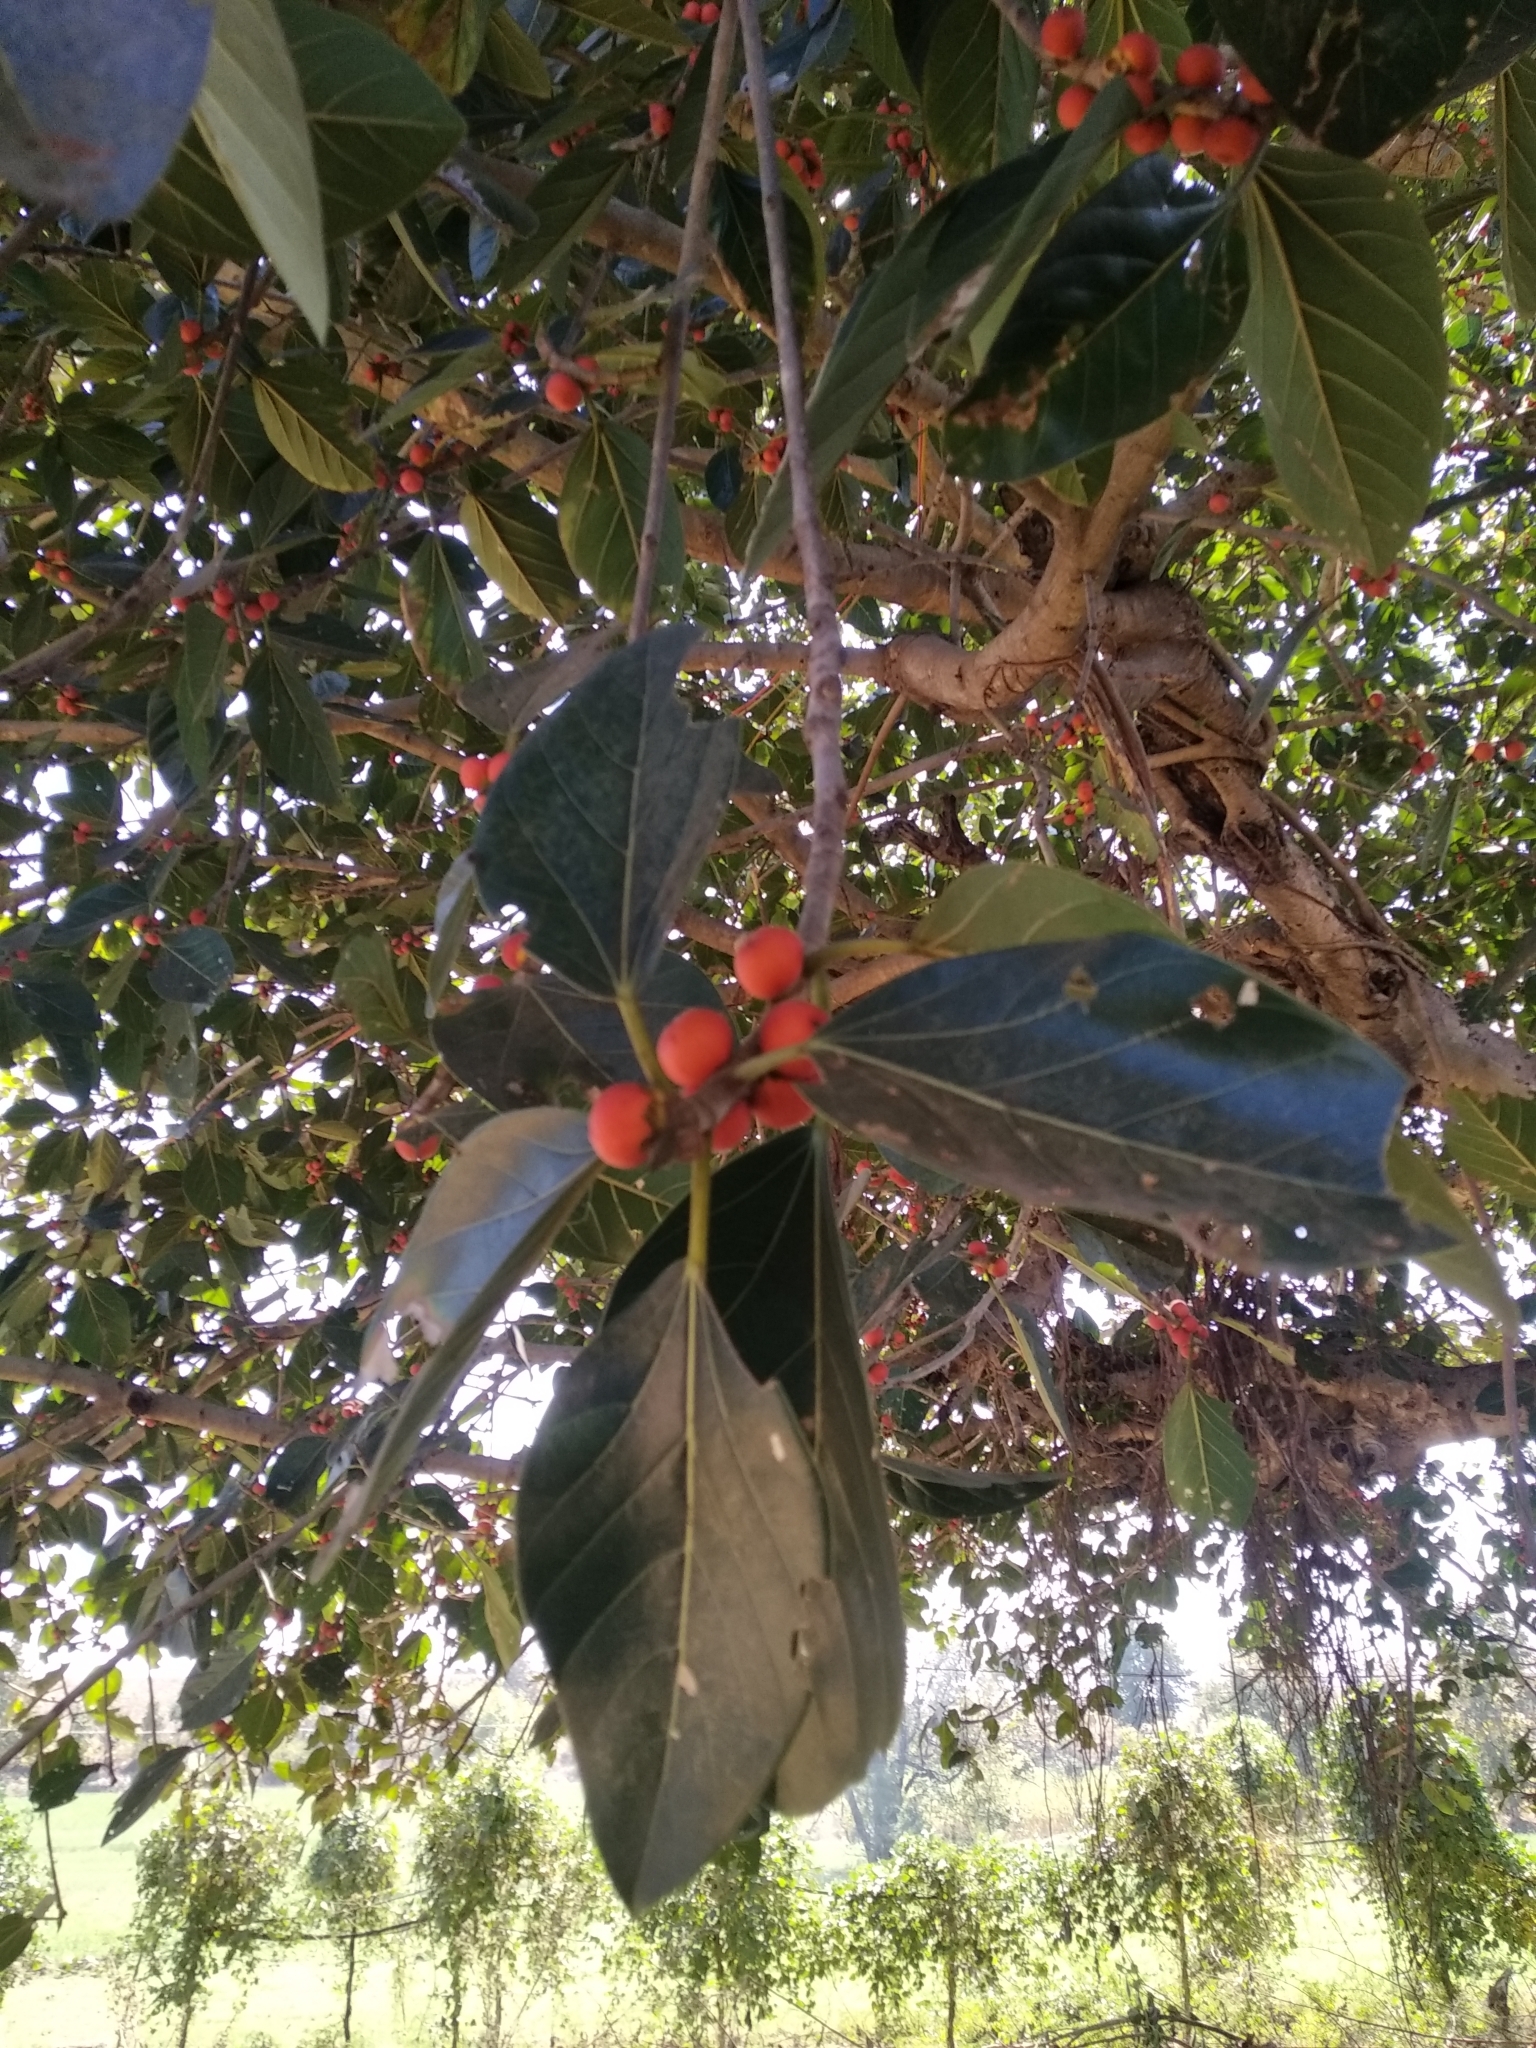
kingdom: Plantae
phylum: Tracheophyta
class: Magnoliopsida
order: Rosales
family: Moraceae
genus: Ficus
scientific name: Ficus benghalensis
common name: Indian banyan
